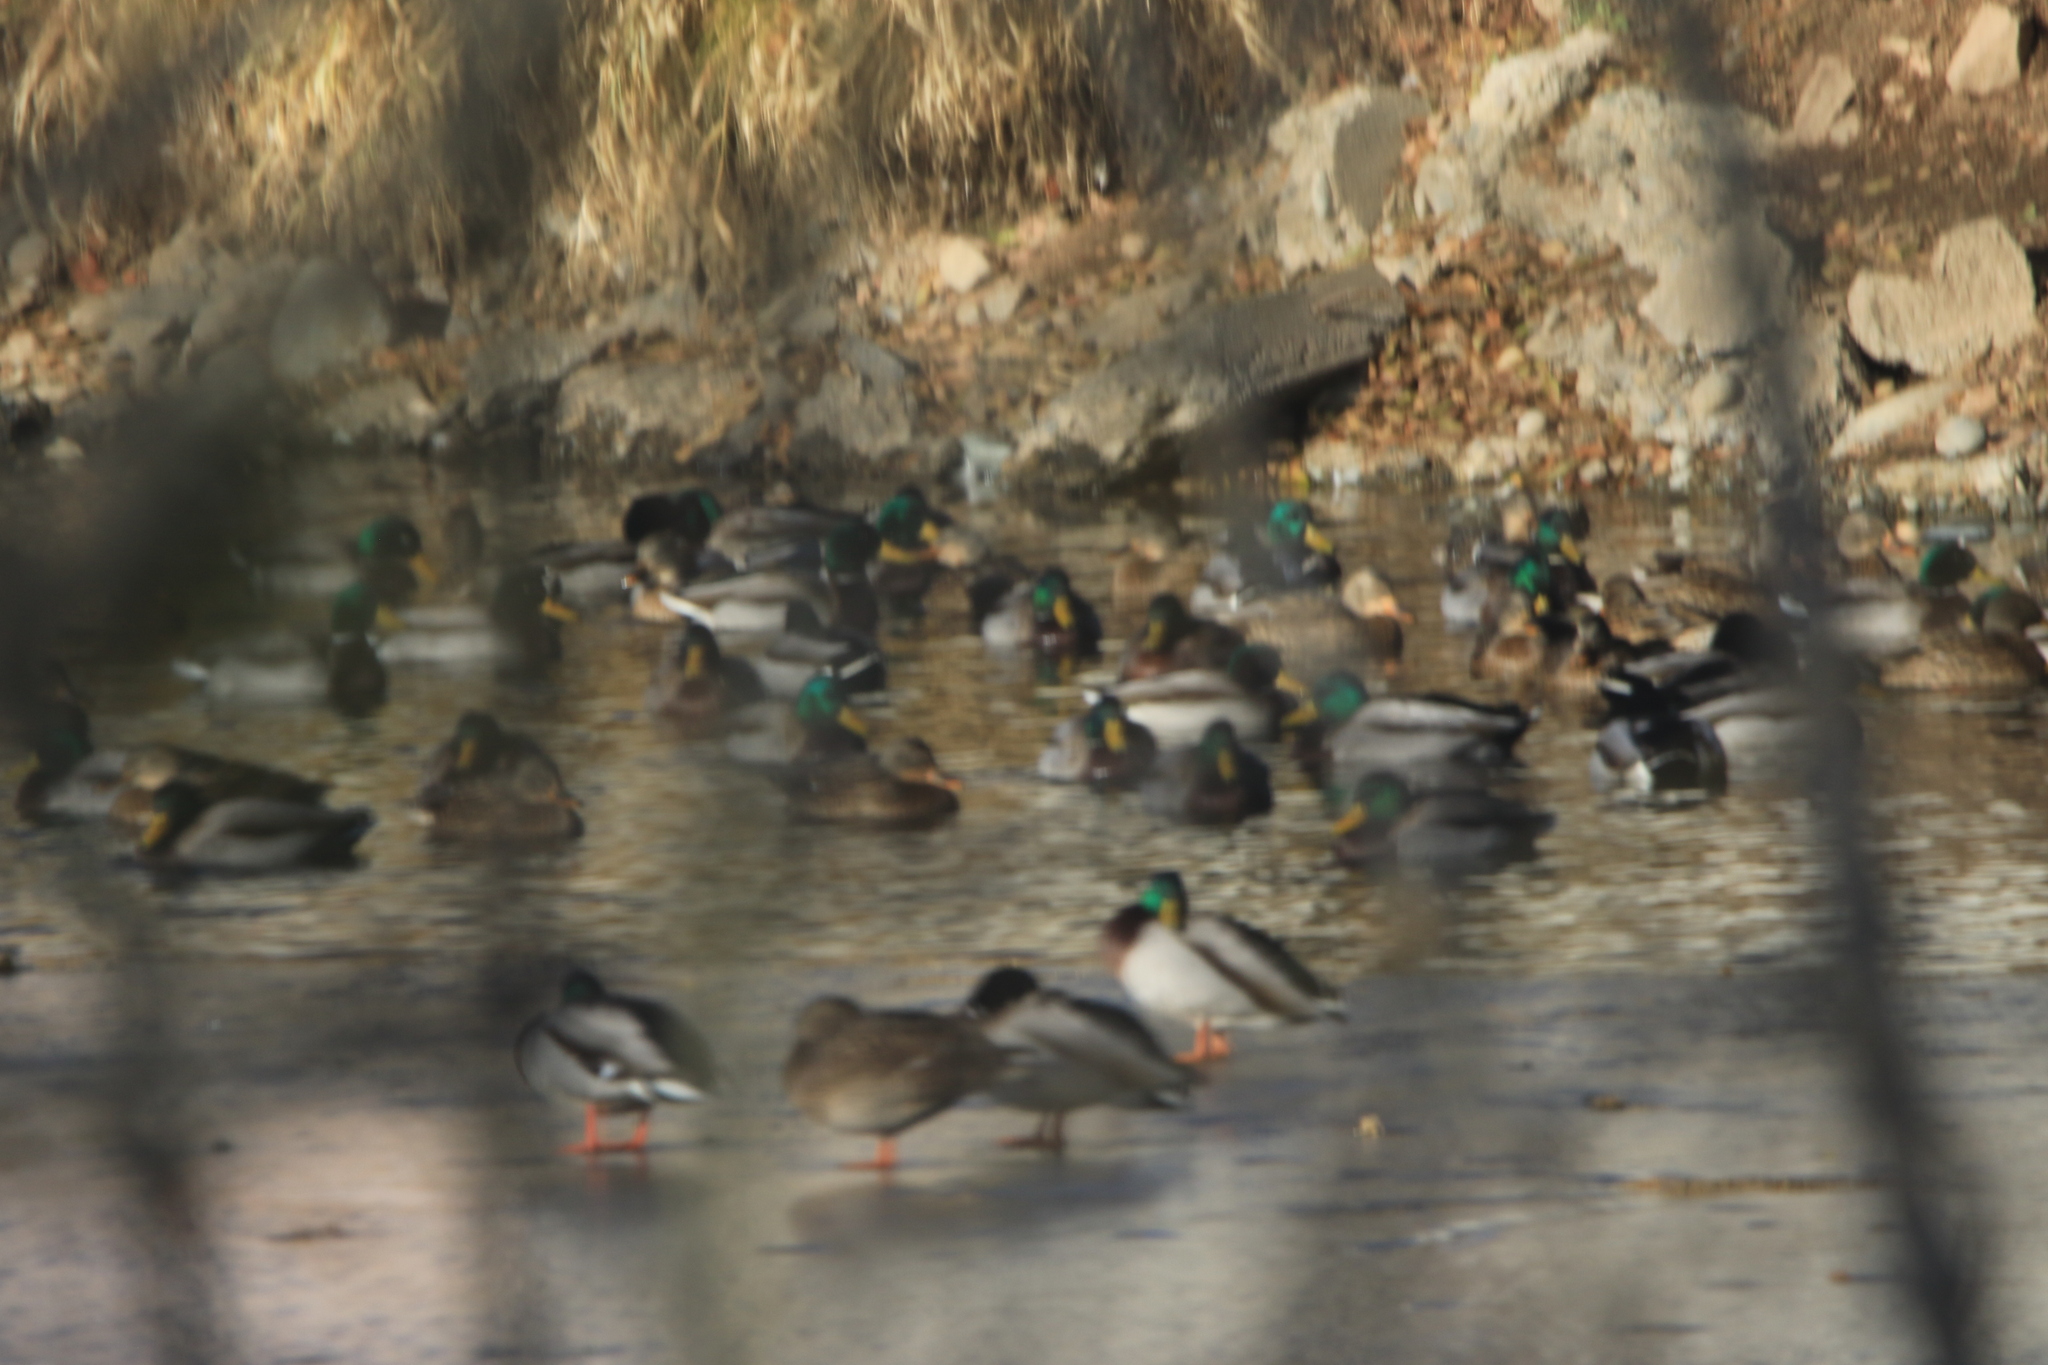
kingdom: Animalia
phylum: Chordata
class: Aves
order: Anseriformes
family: Anatidae
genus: Anas
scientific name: Anas platyrhynchos
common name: Mallard
